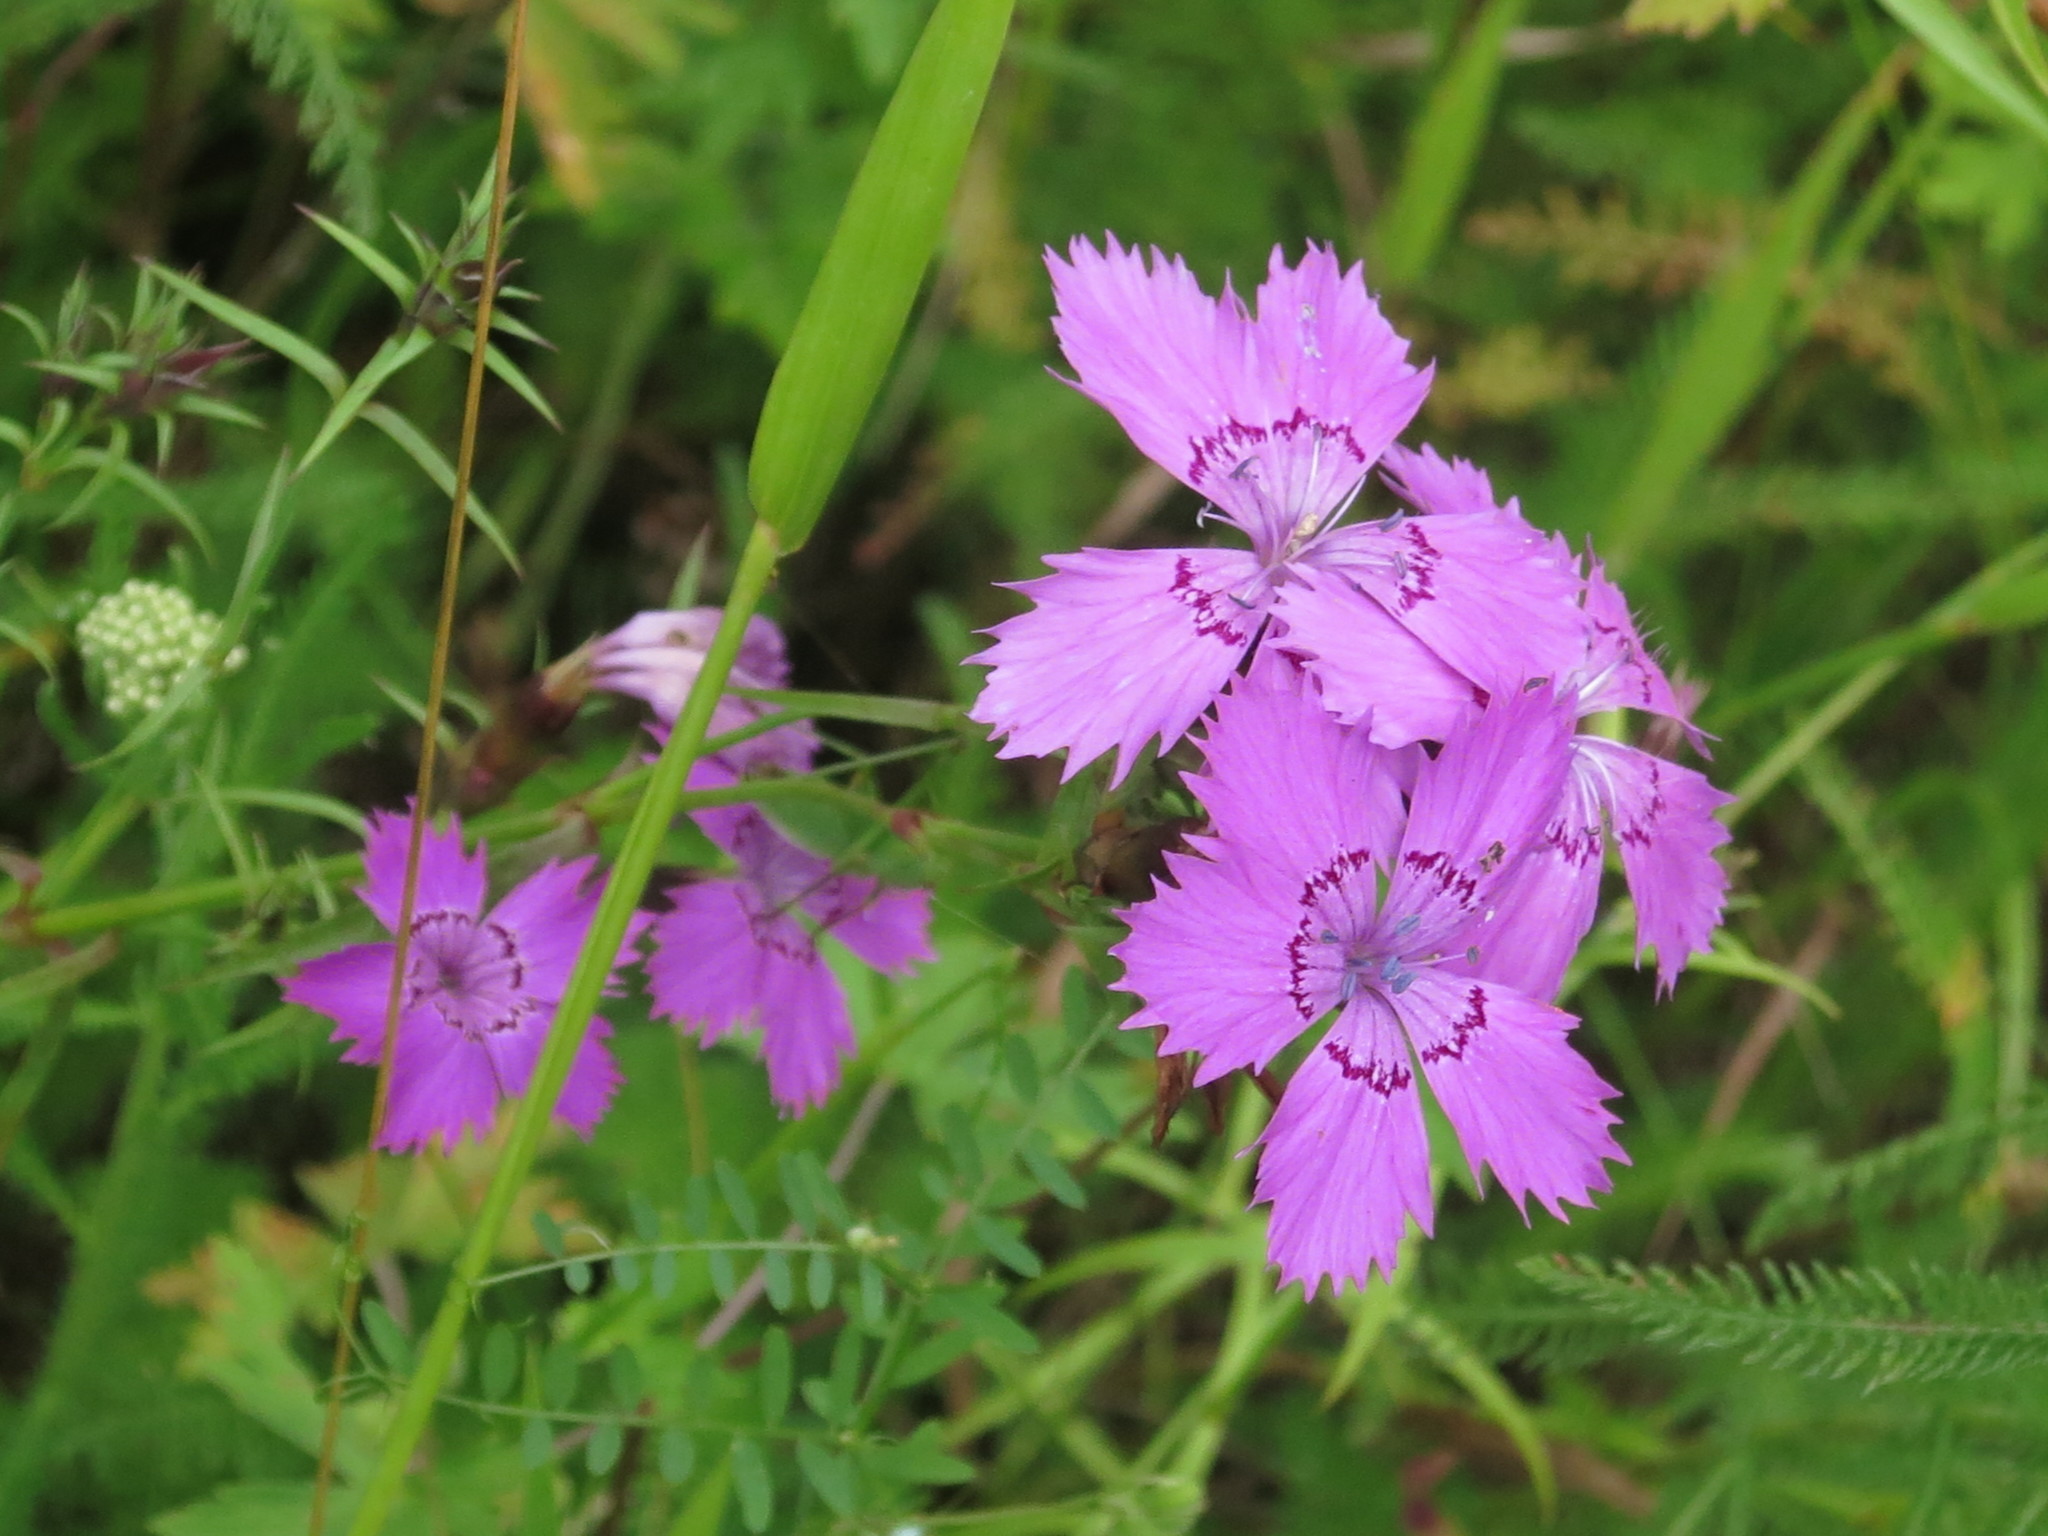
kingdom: Plantae
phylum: Tracheophyta
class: Magnoliopsida
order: Caryophyllales
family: Caryophyllaceae
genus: Dianthus
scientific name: Dianthus chinensis
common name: Rainbow pink
